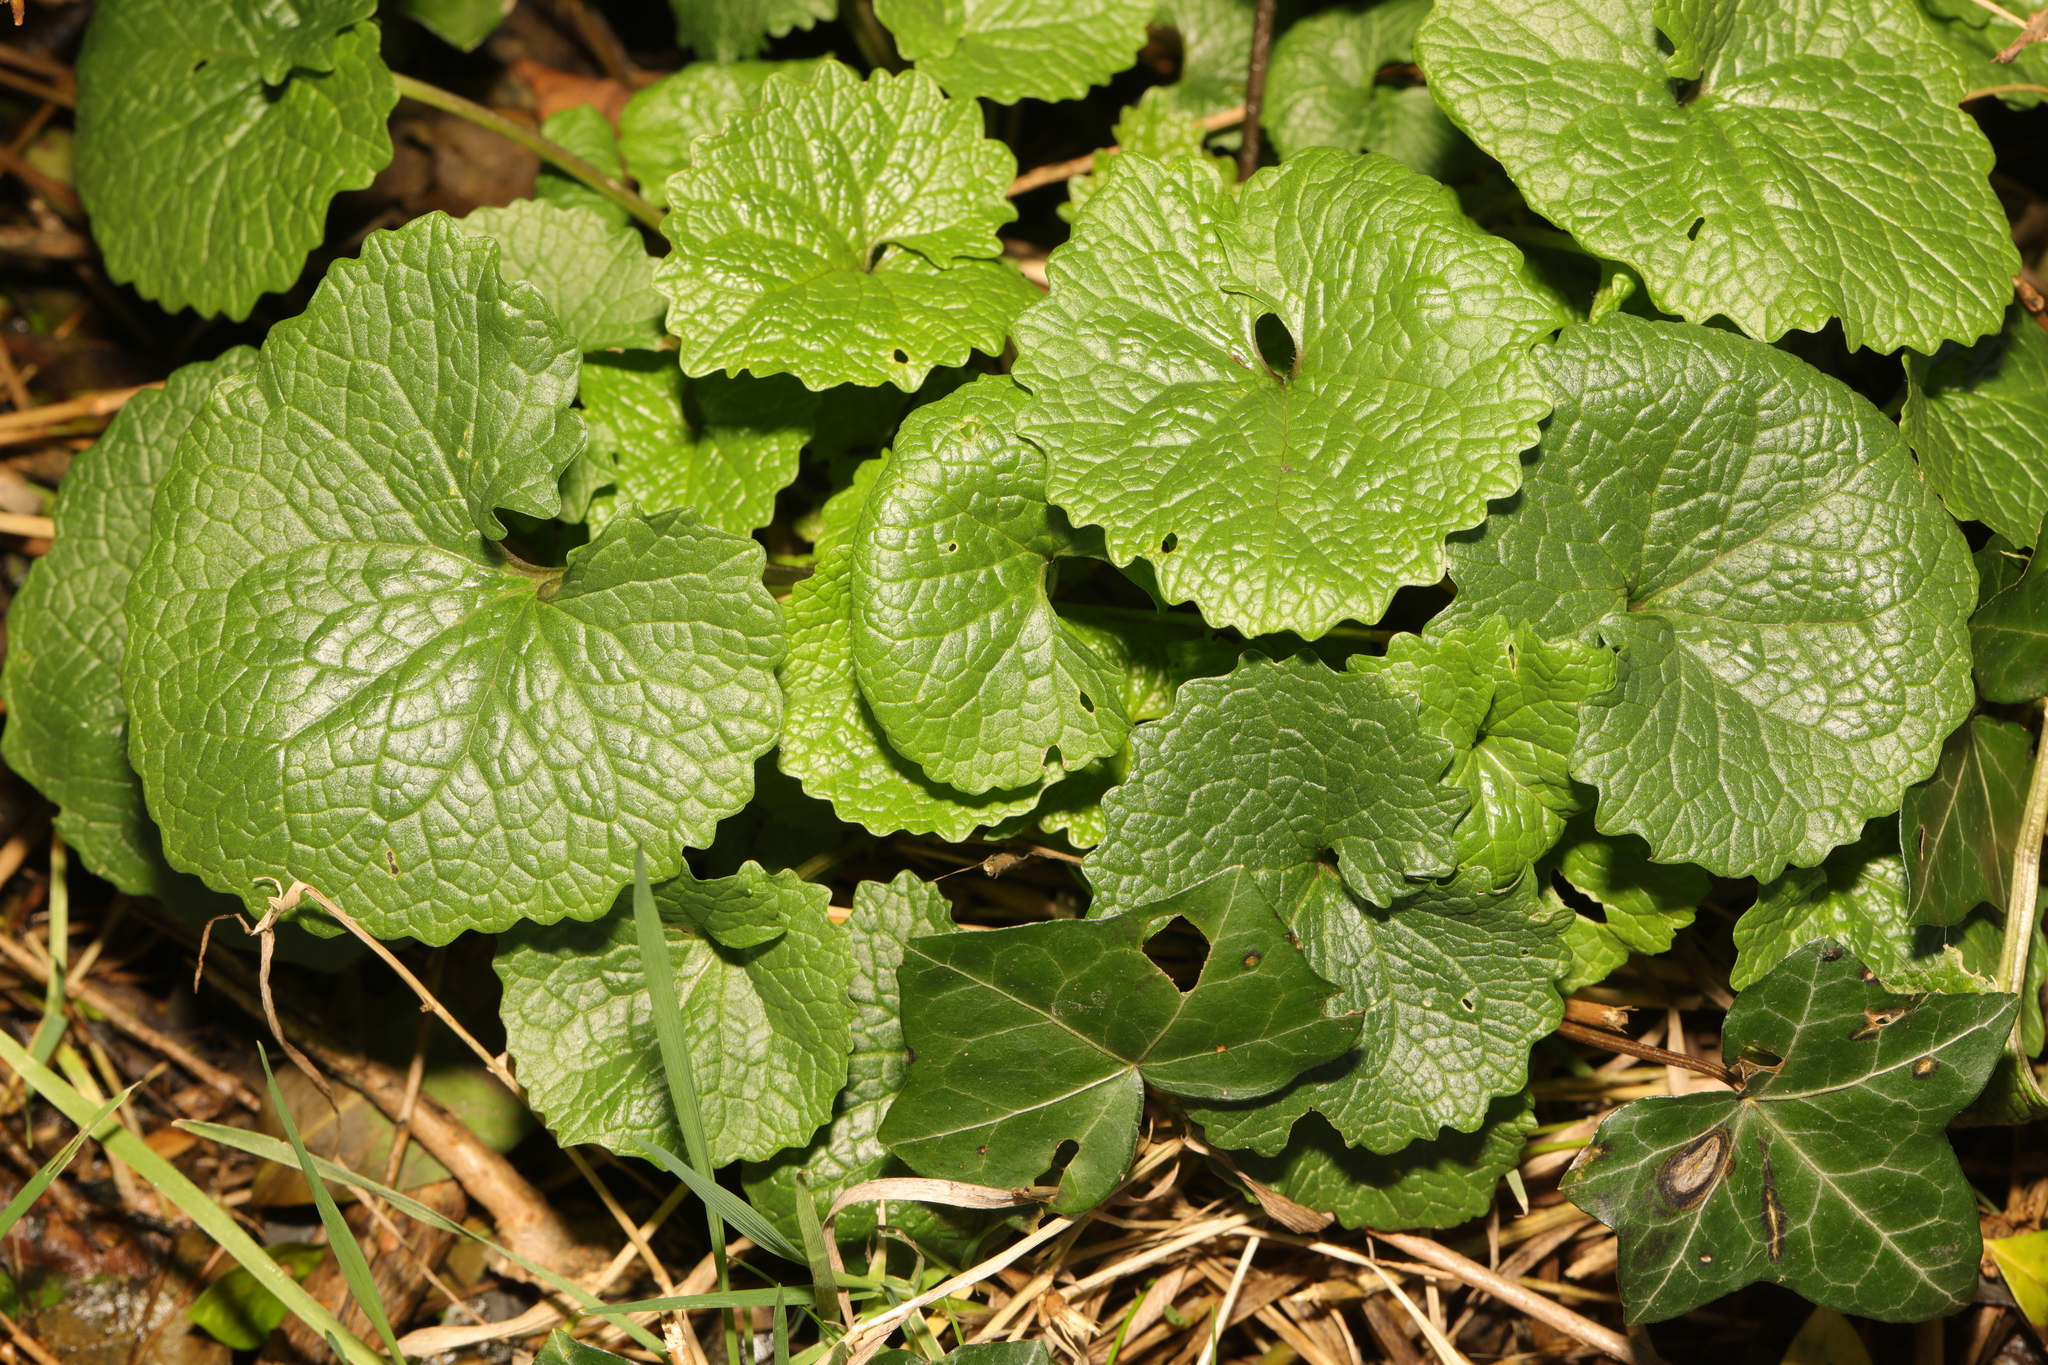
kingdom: Plantae
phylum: Tracheophyta
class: Magnoliopsida
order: Brassicales
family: Brassicaceae
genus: Alliaria
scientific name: Alliaria petiolata
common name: Garlic mustard
